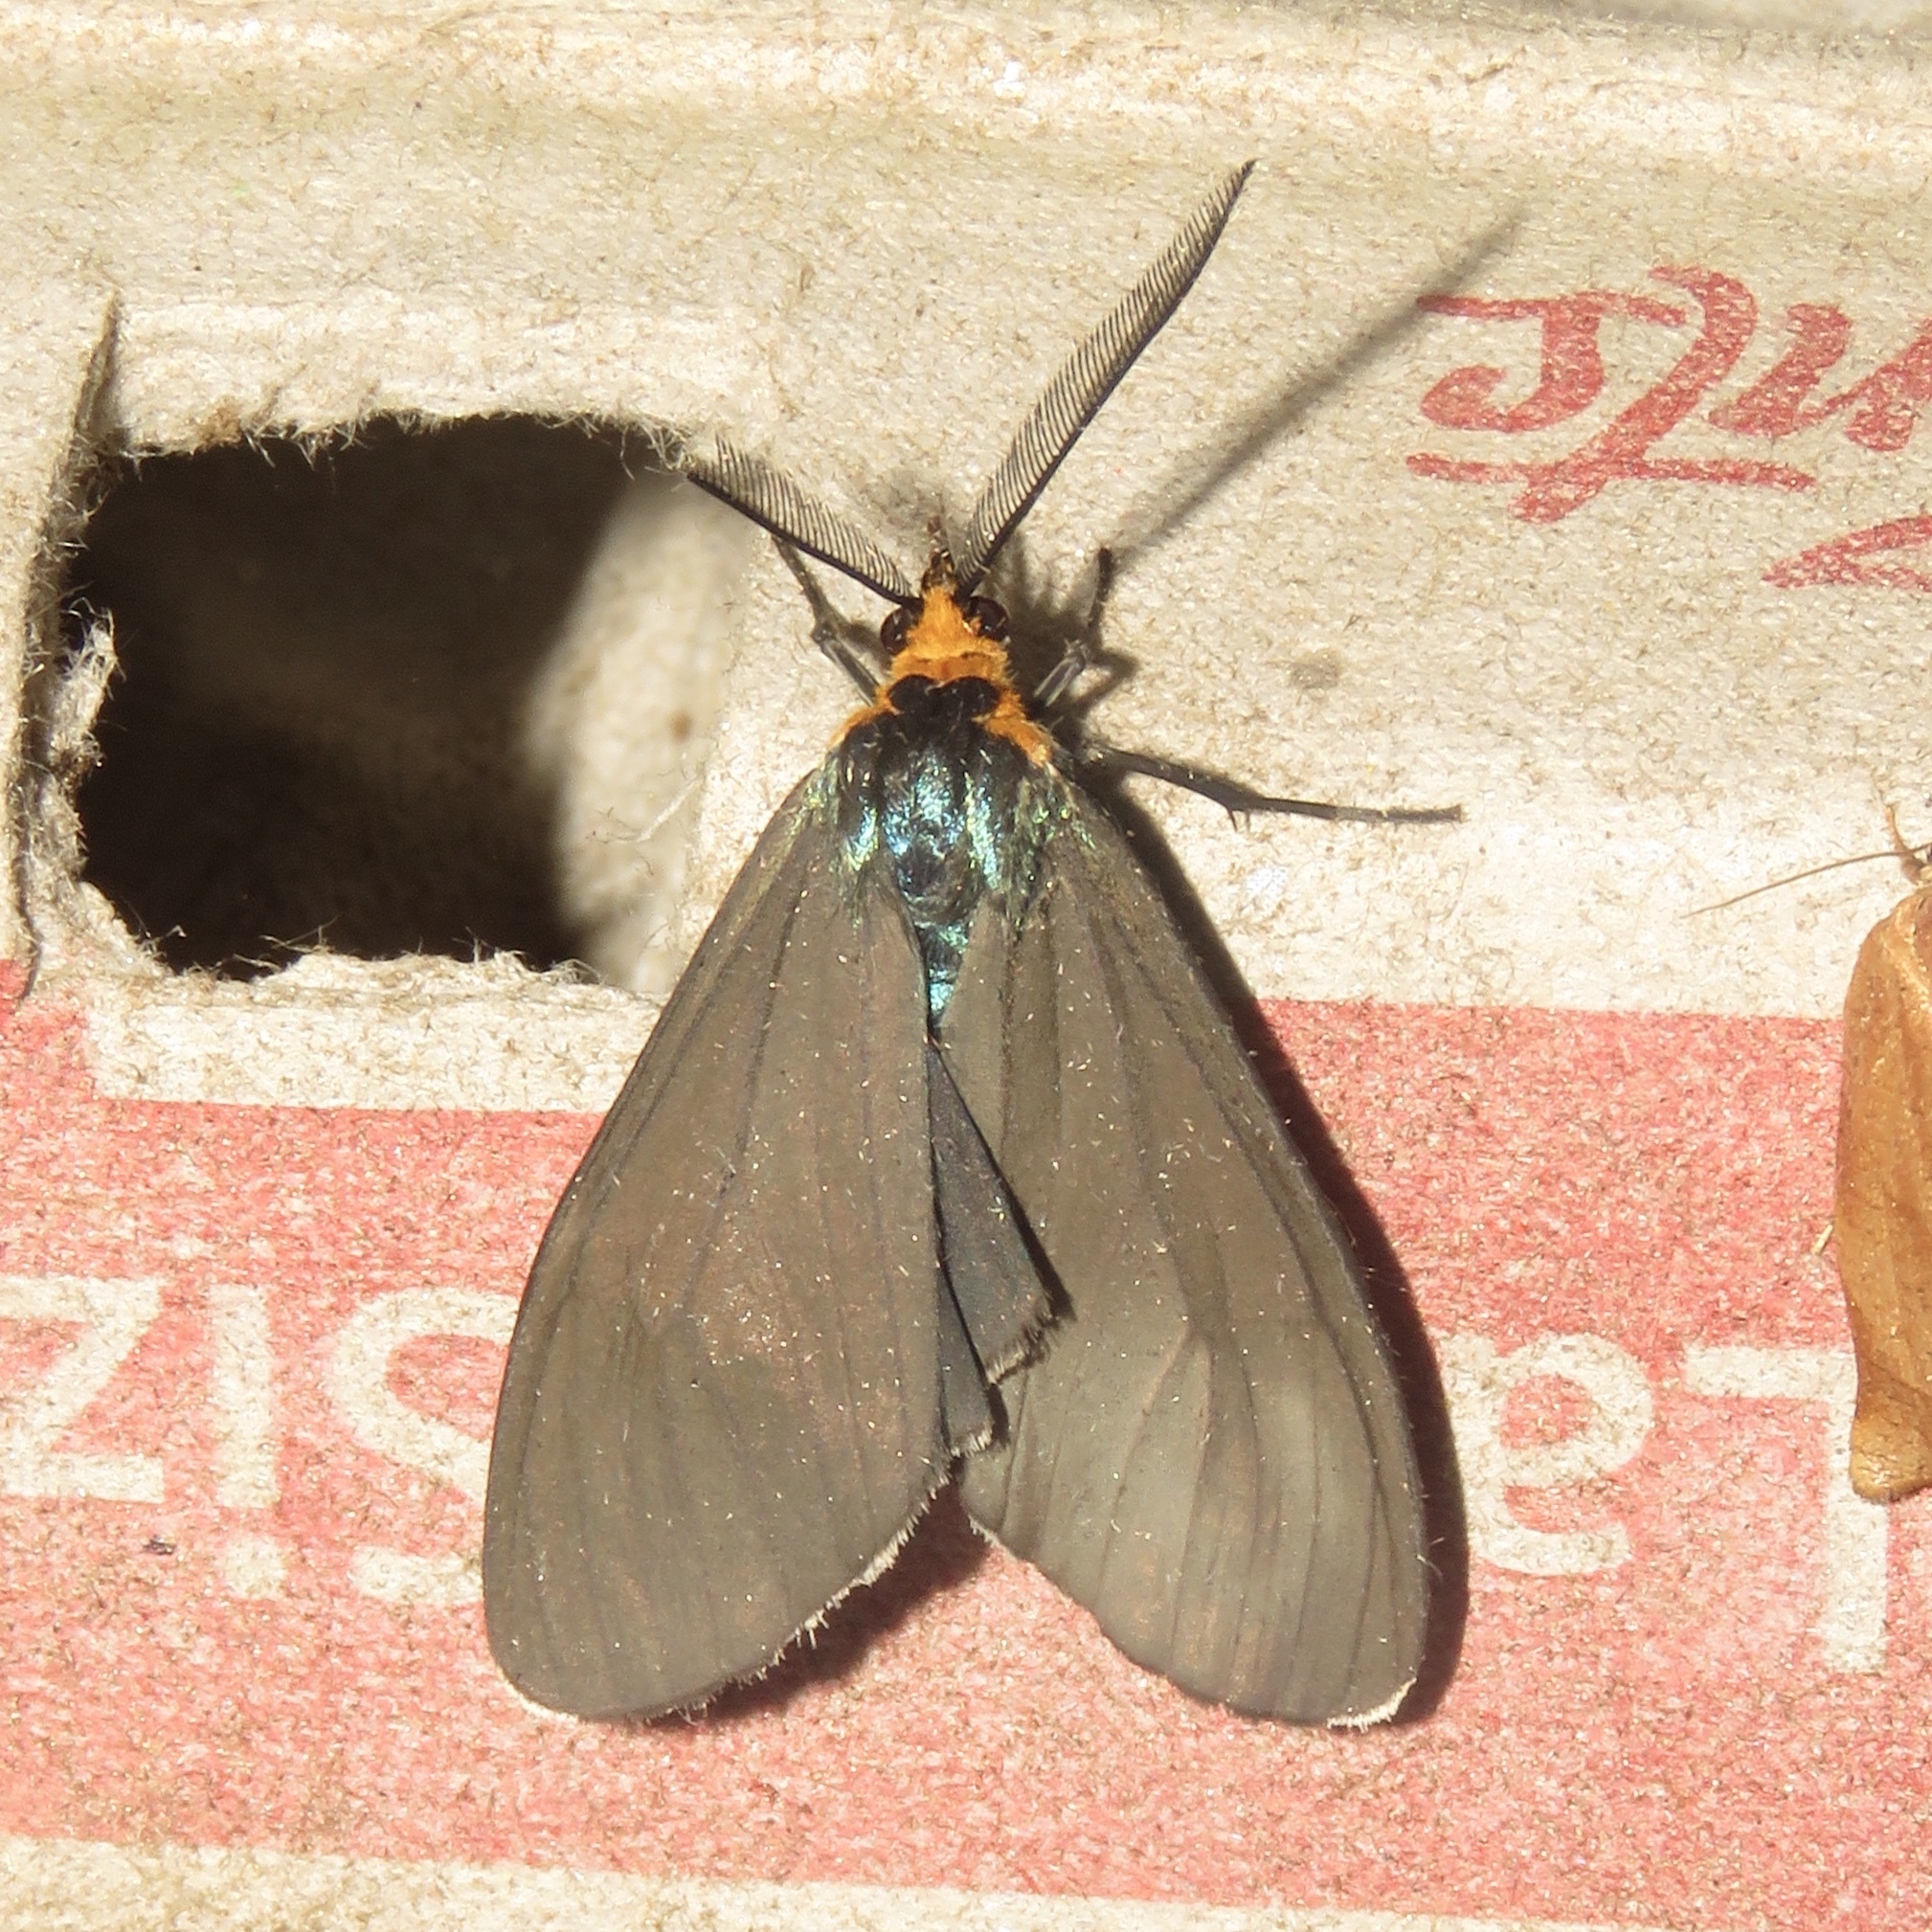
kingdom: Animalia
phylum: Arthropoda
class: Insecta
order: Lepidoptera
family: Erebidae
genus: Ctenucha
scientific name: Ctenucha virginica
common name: Virginia ctenucha moth
